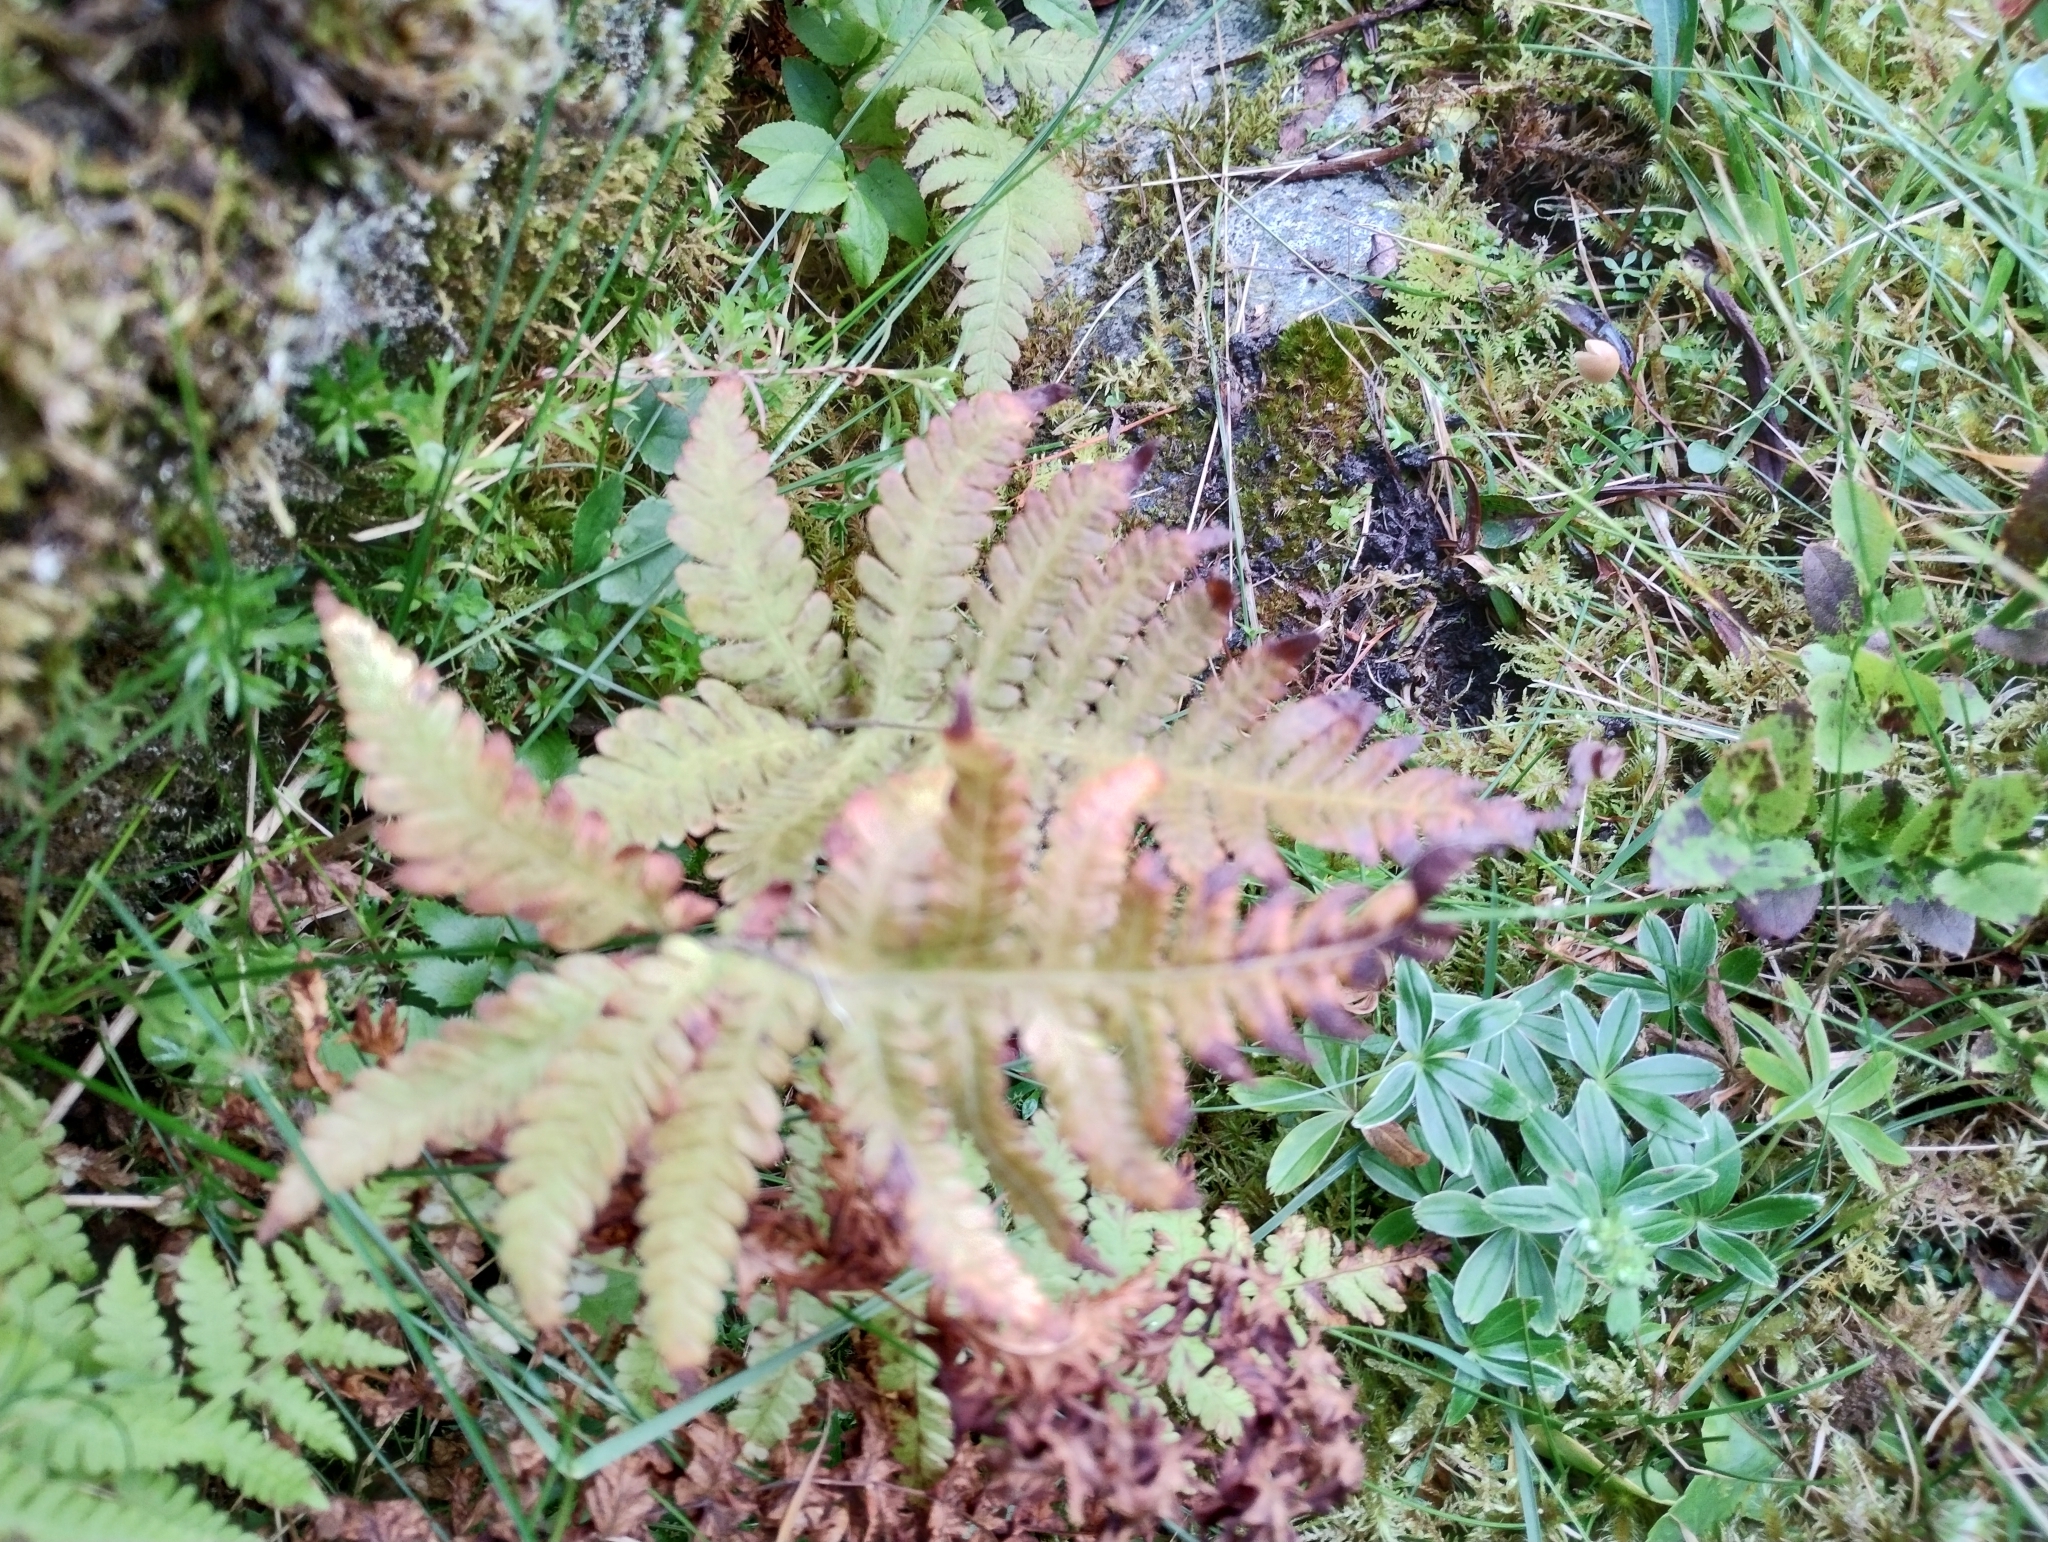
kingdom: Plantae
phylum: Tracheophyta
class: Polypodiopsida
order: Polypodiales
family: Thelypteridaceae
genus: Phegopteris
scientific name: Phegopteris connectilis
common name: Beech fern
